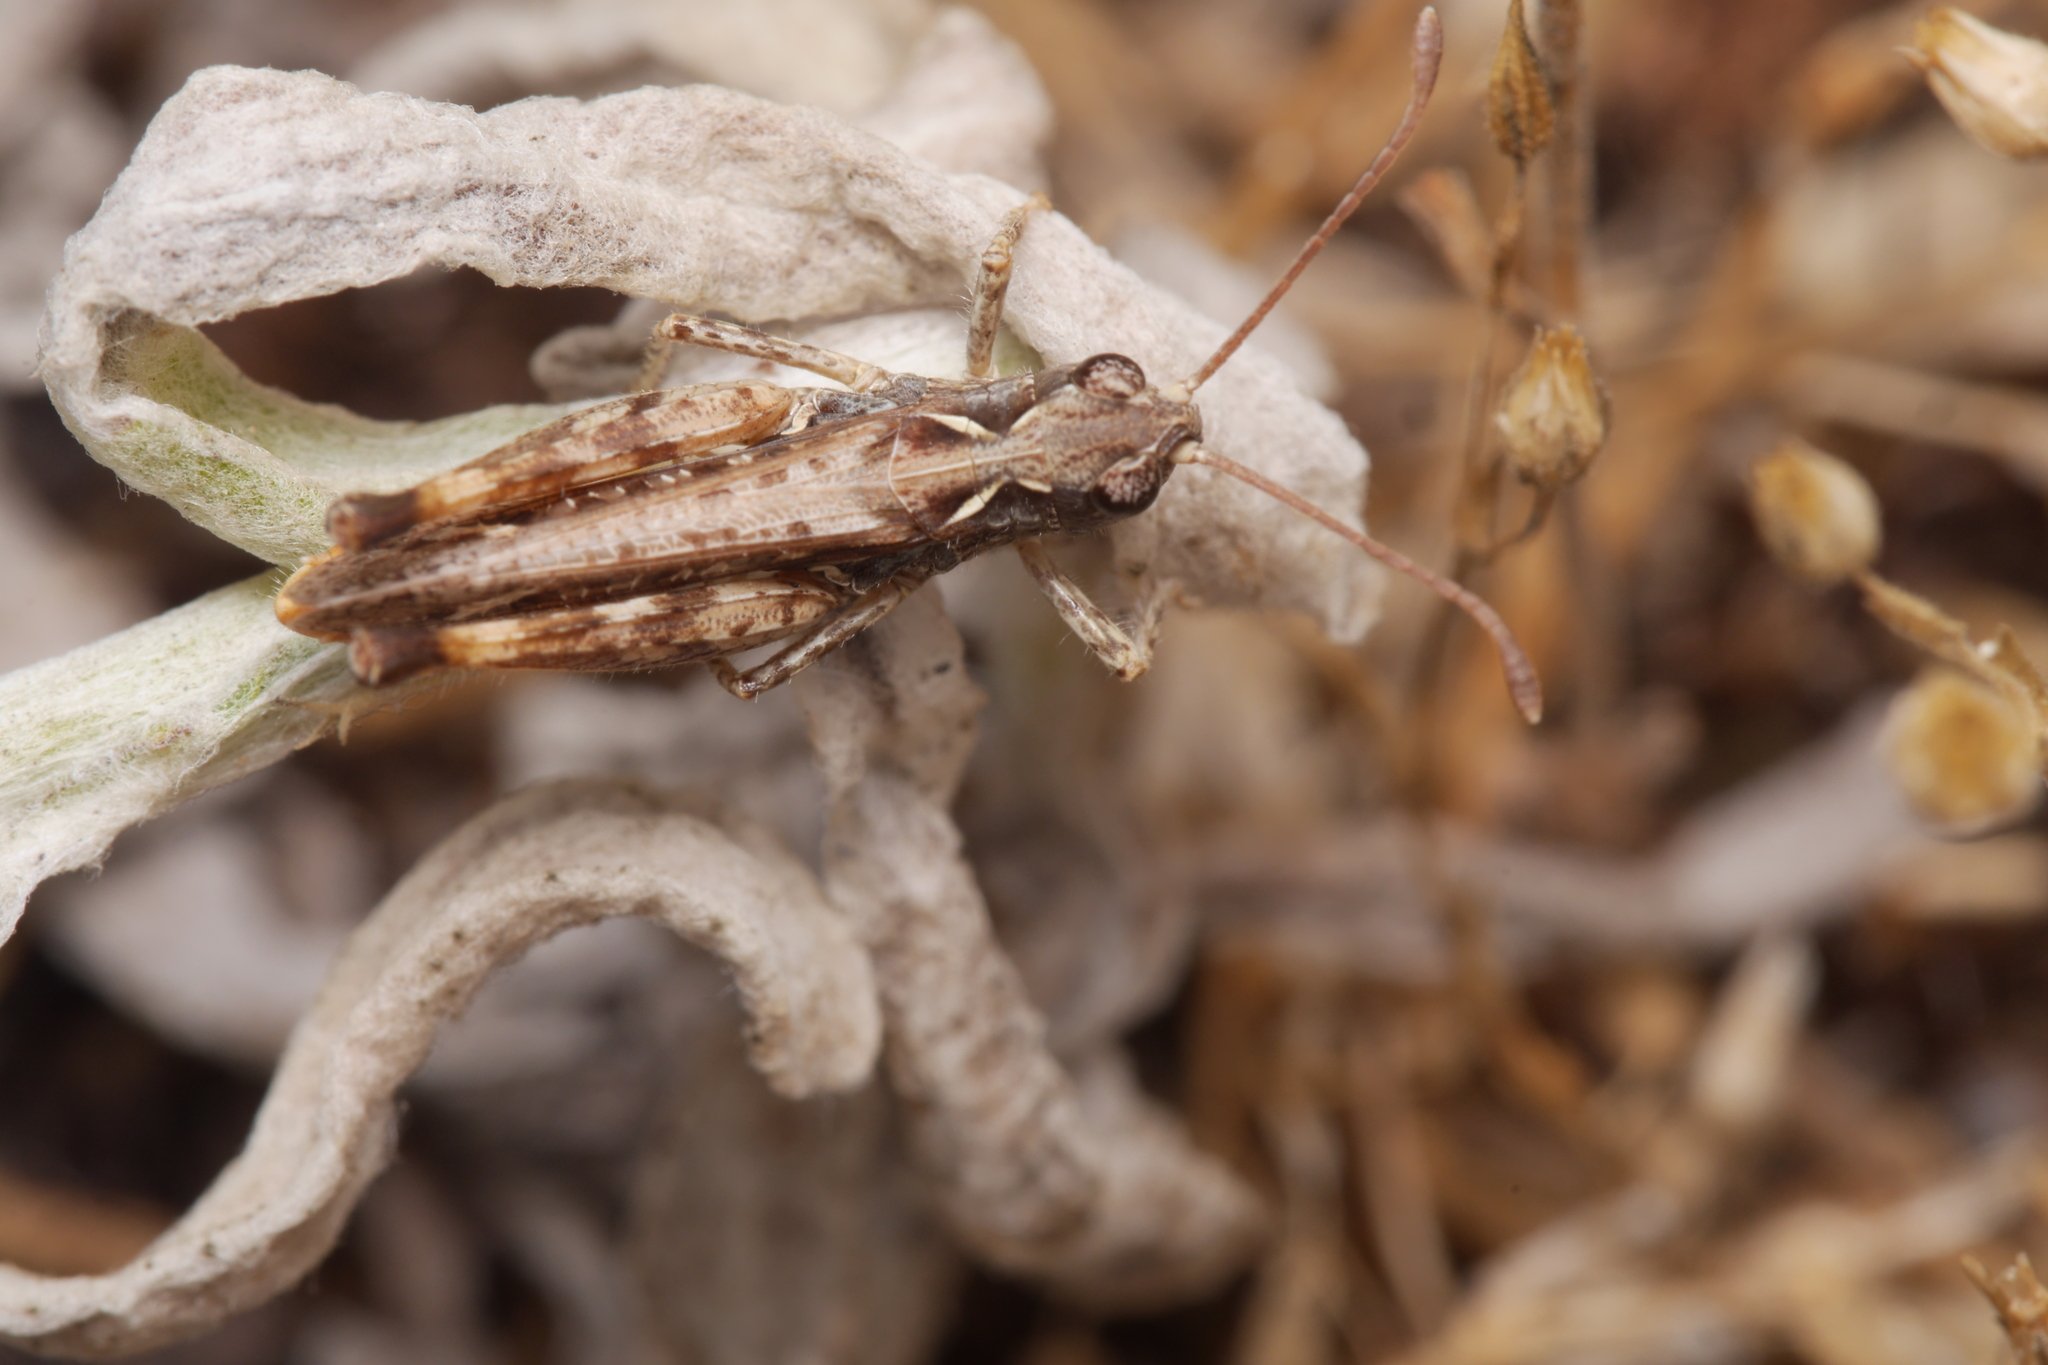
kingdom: Animalia
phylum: Arthropoda
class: Insecta
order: Orthoptera
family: Acrididae
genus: Myrmeleotettix
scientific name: Myrmeleotettix maculatus
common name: Mottled grasshopper
